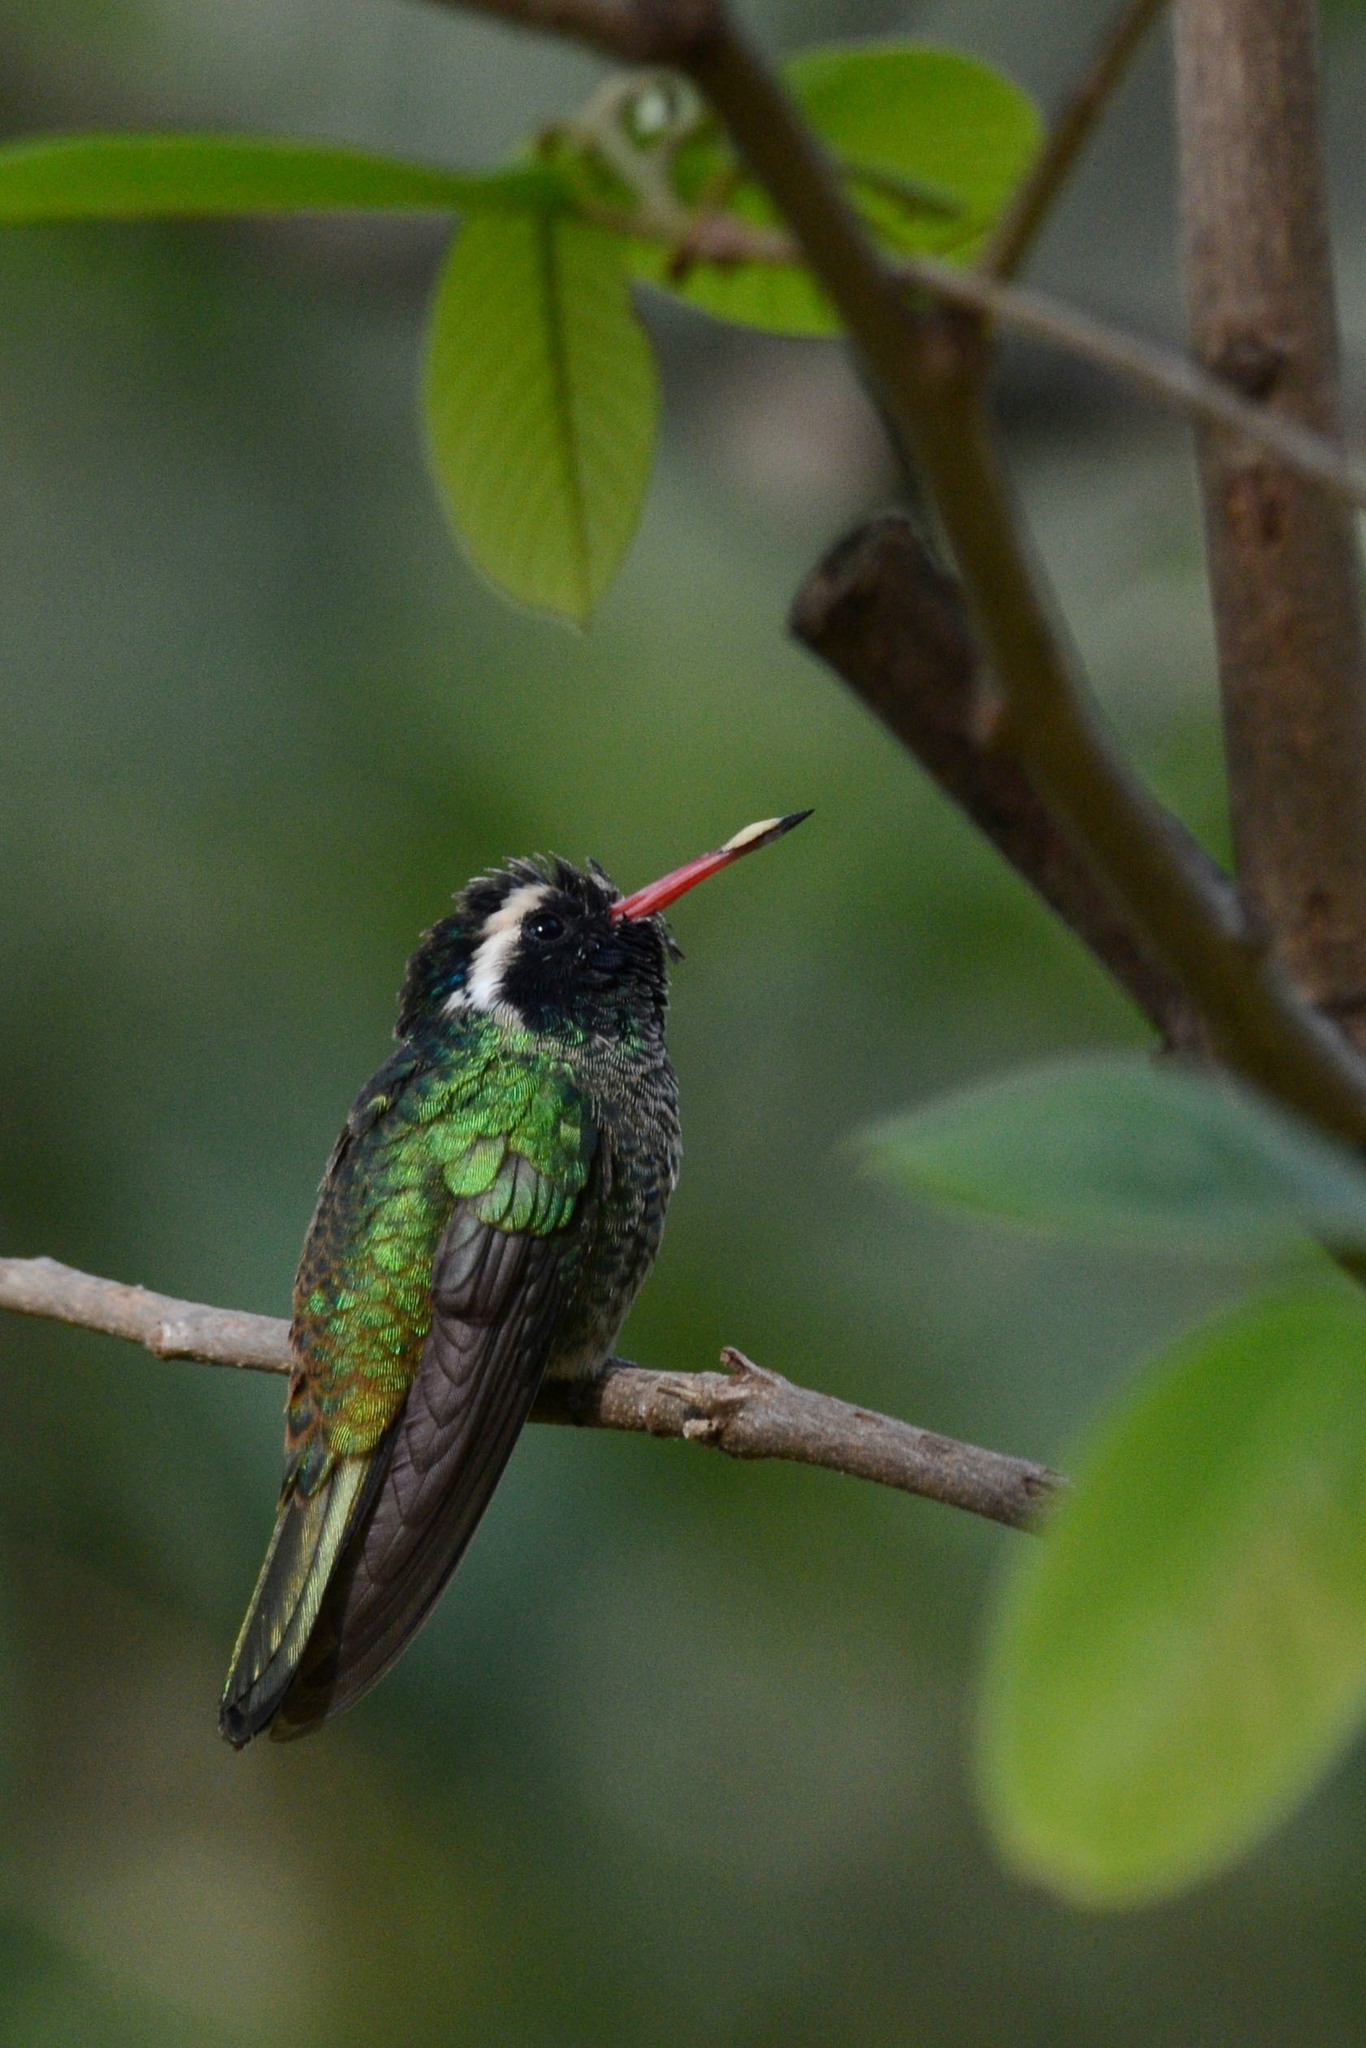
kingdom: Animalia
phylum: Chordata
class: Aves
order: Apodiformes
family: Trochilidae
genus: Basilinna
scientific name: Basilinna leucotis
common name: White-eared hummingbird
